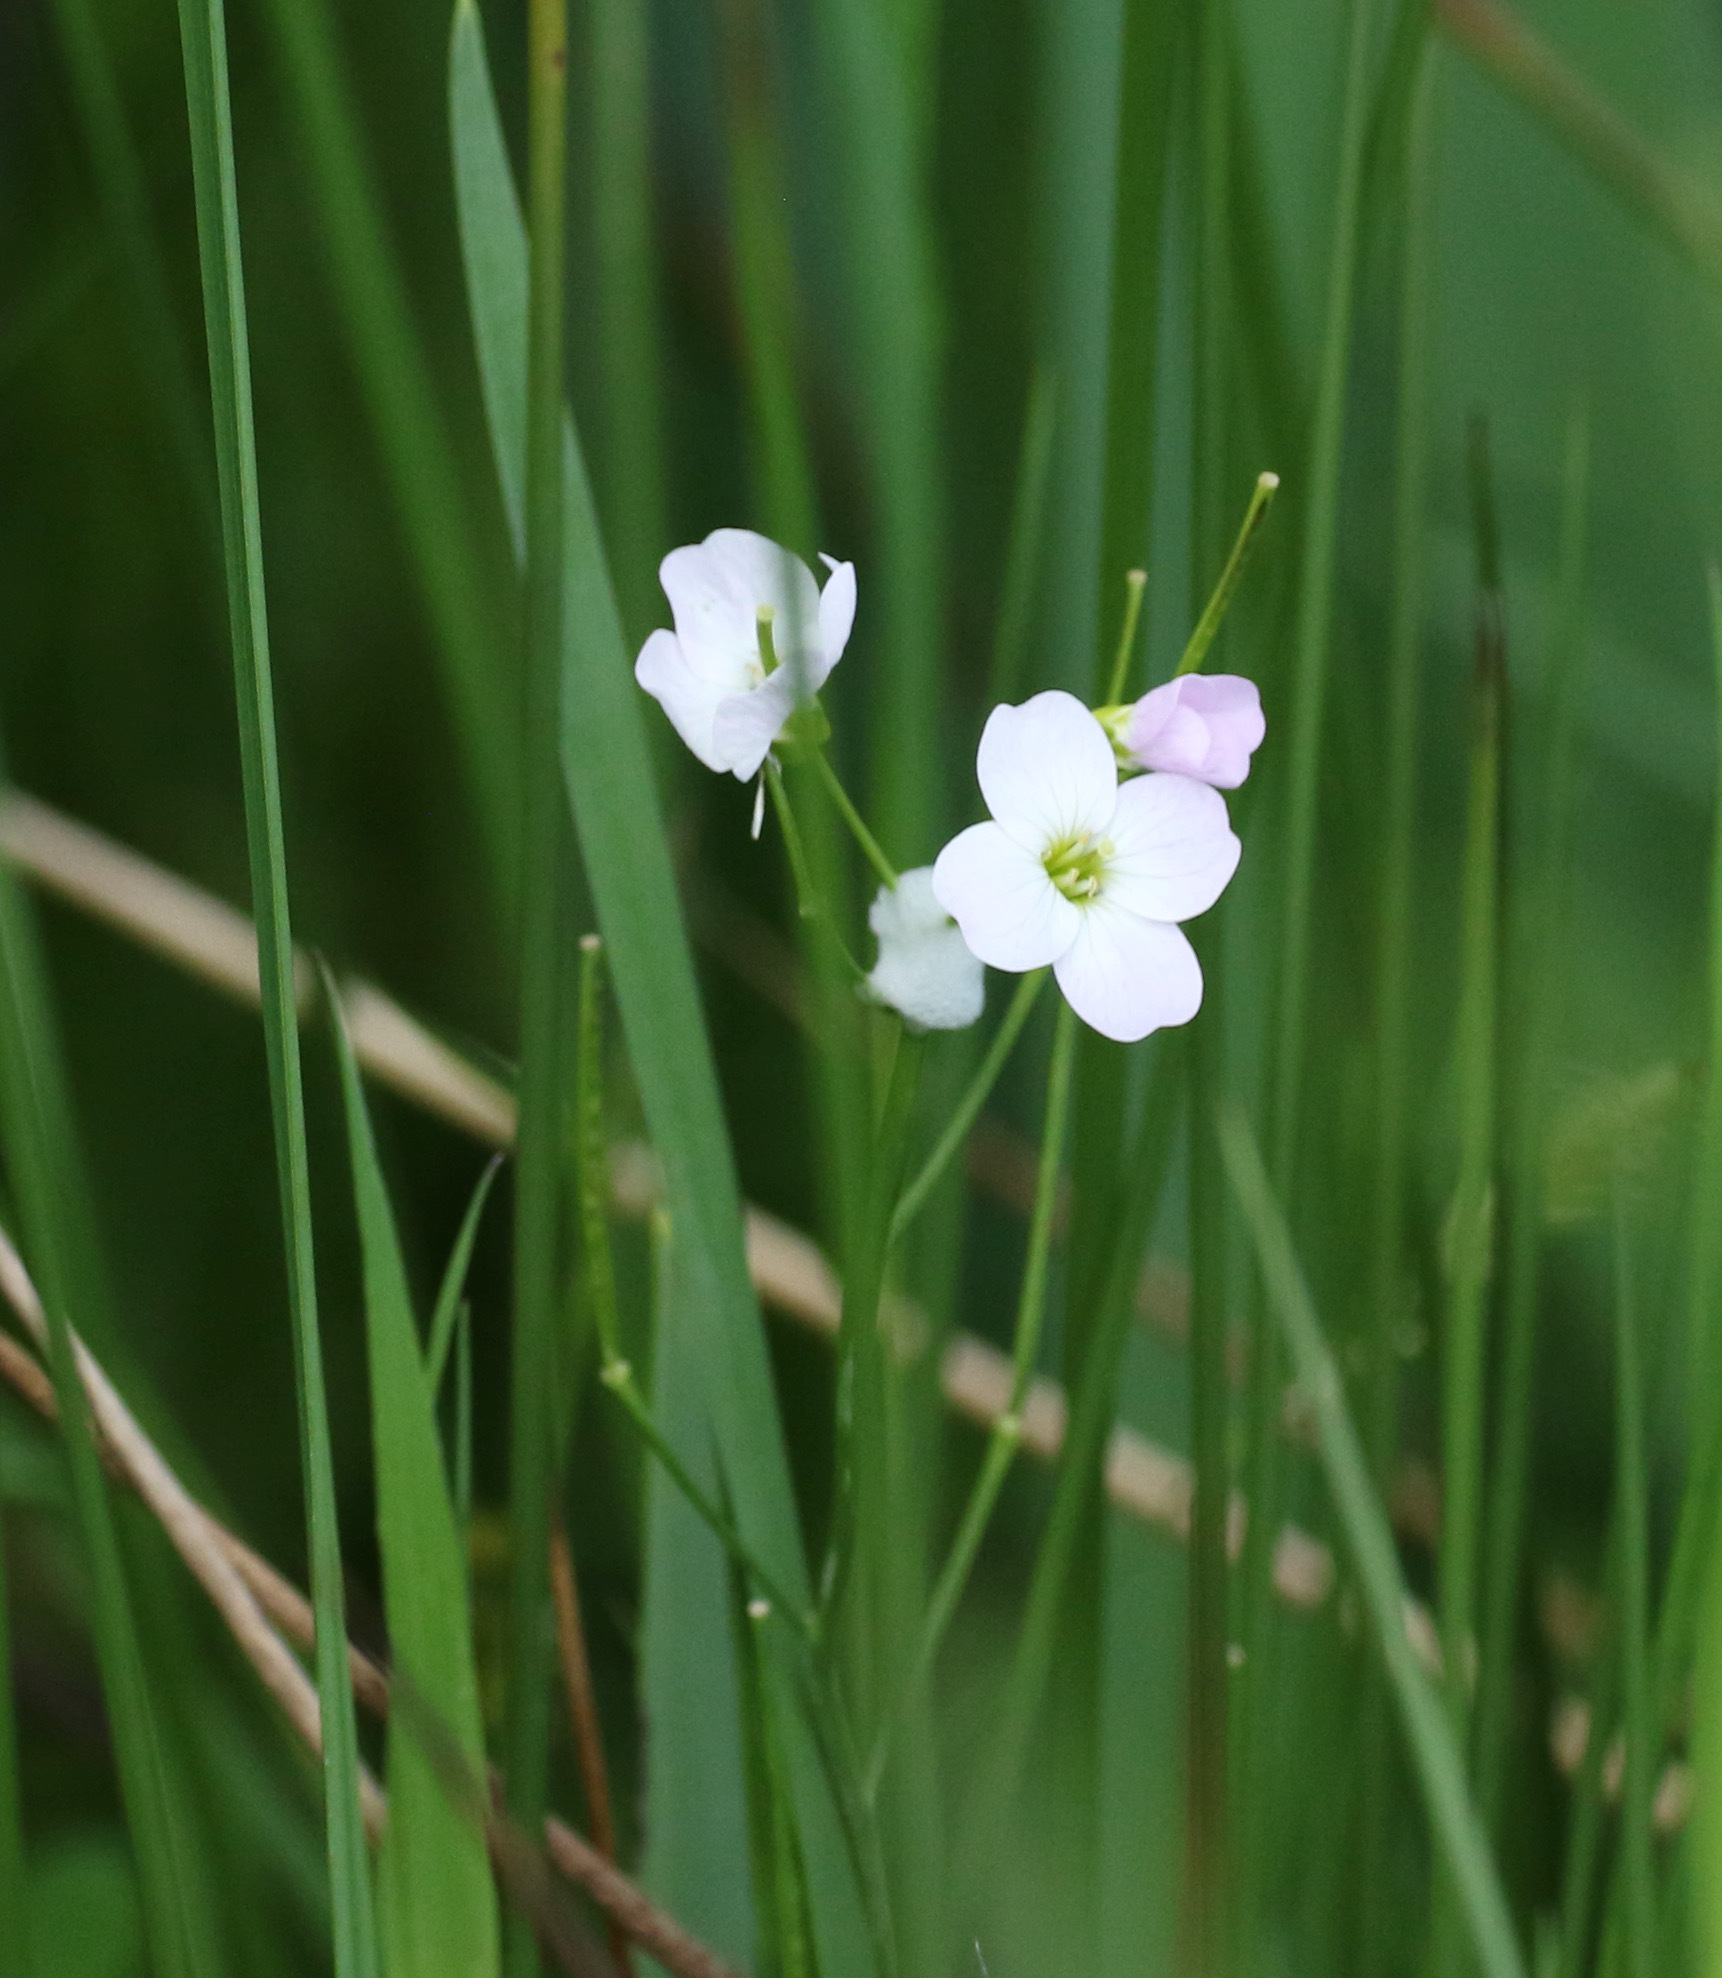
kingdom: Plantae
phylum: Tracheophyta
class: Magnoliopsida
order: Brassicales
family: Brassicaceae
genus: Cardamine
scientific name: Cardamine pratensis
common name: Cuckoo flower
